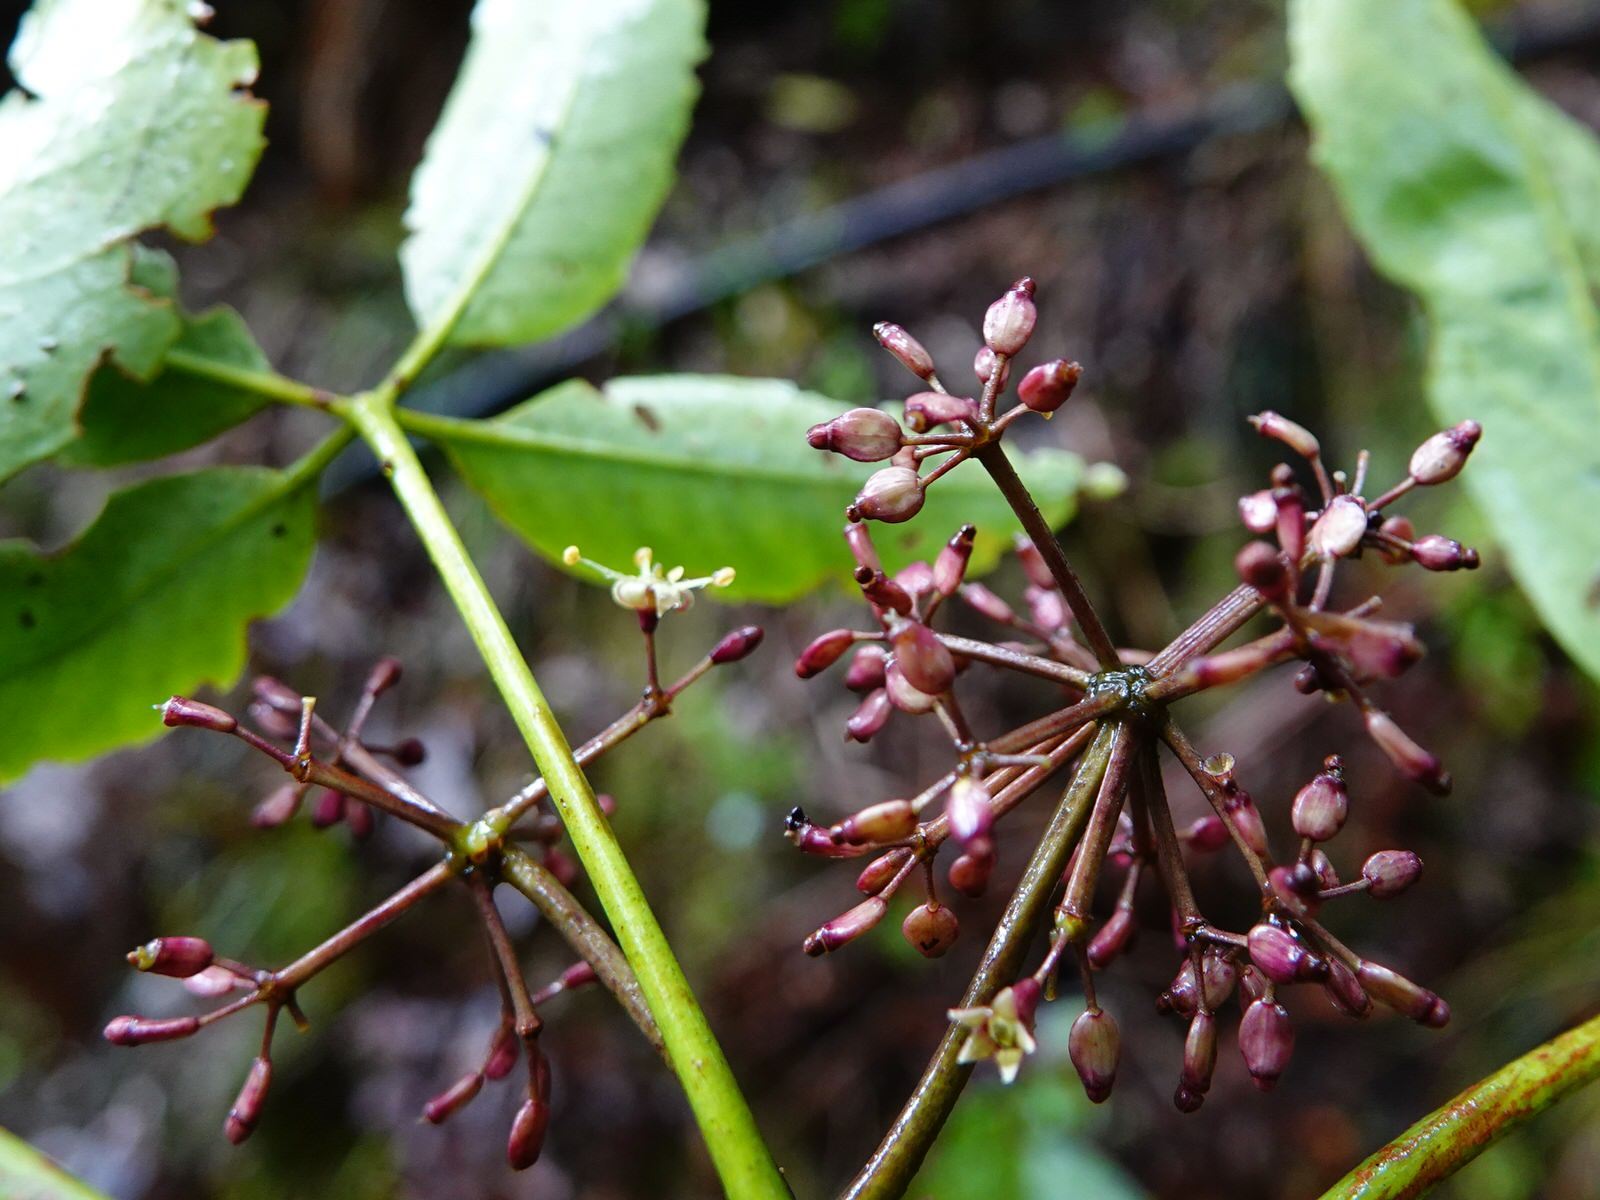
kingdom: Plantae
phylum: Tracheophyta
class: Magnoliopsida
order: Apiales
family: Araliaceae
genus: Neopanax
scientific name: Neopanax arboreus
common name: Five-fingers
